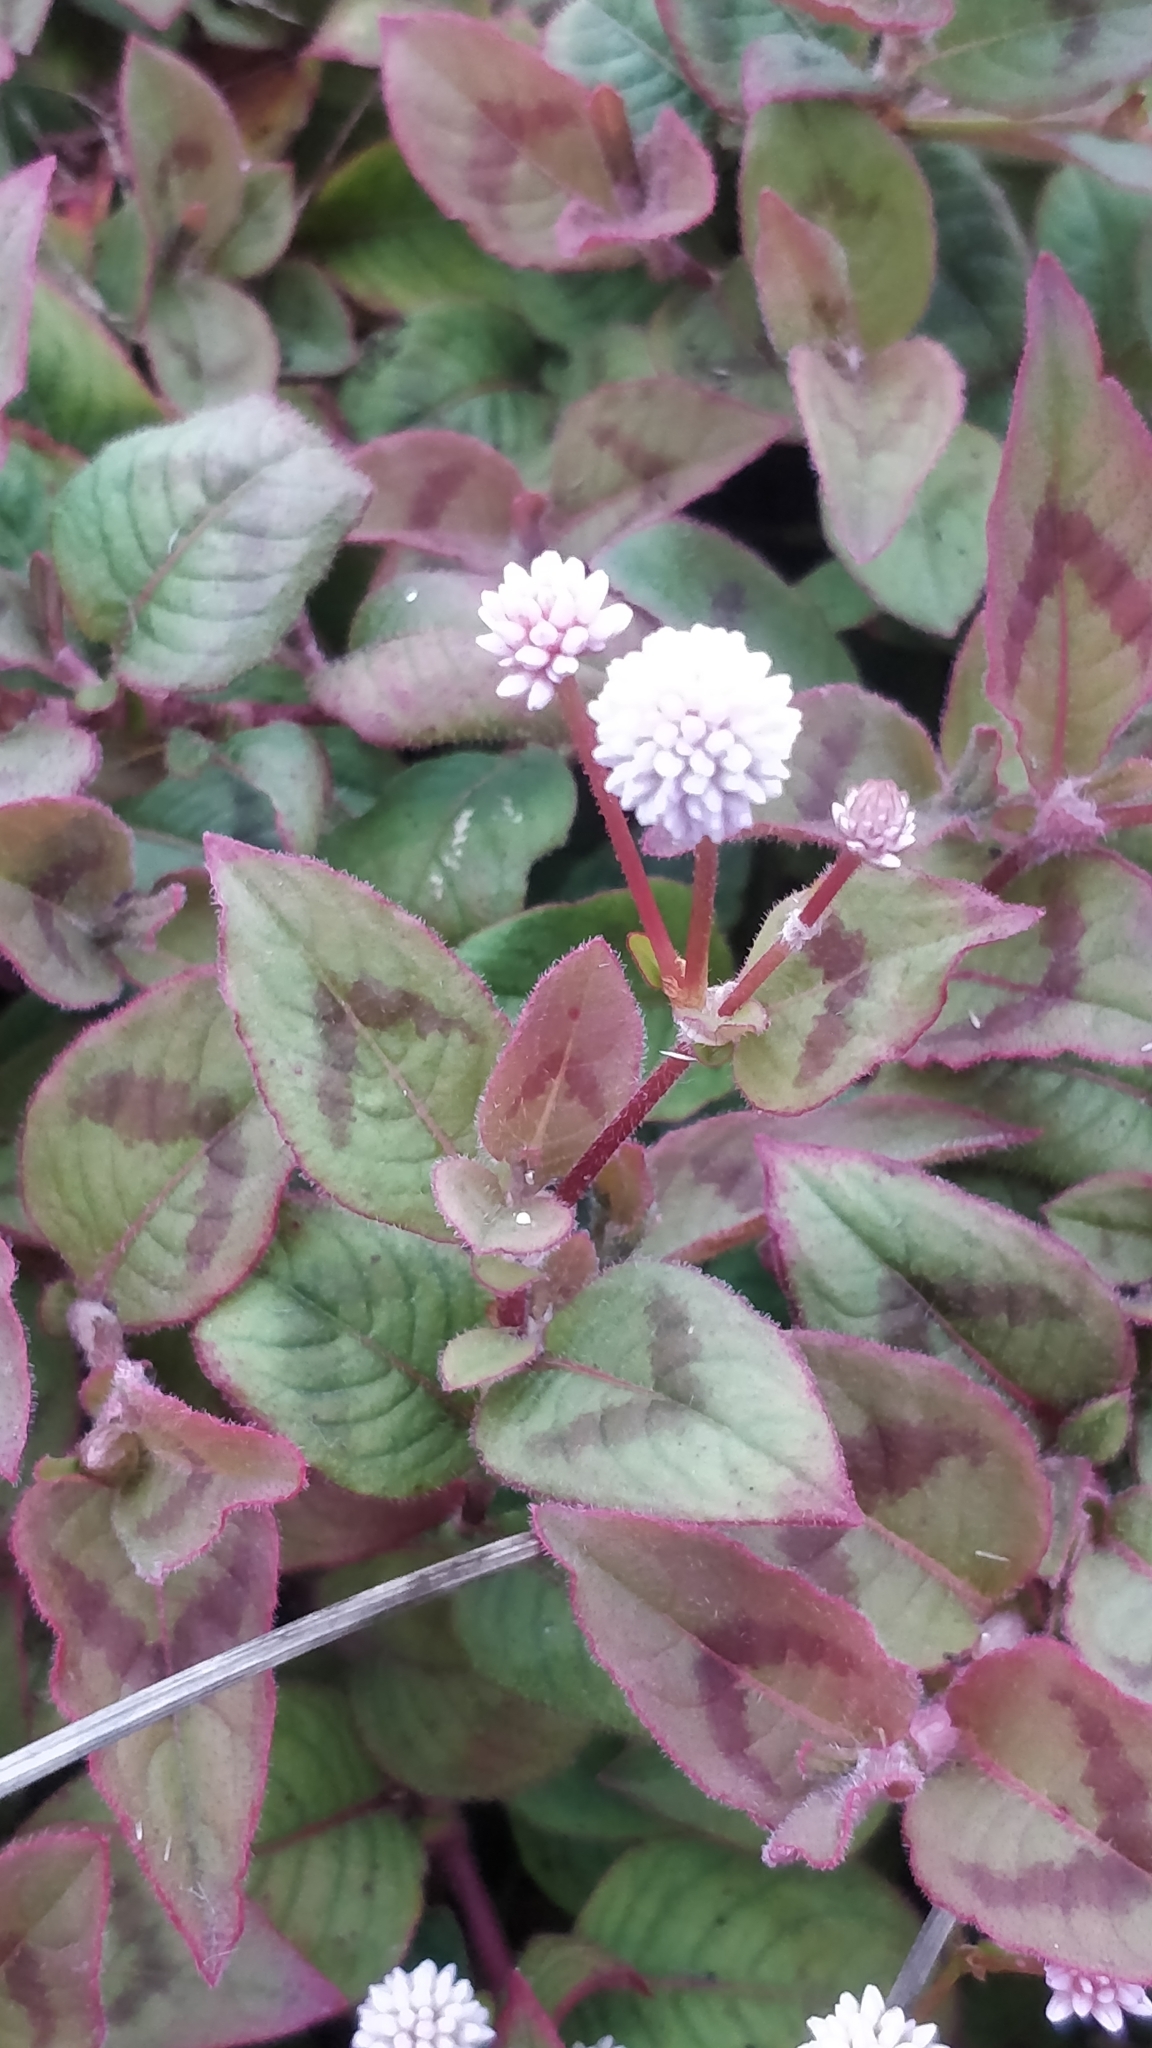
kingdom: Plantae
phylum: Tracheophyta
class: Magnoliopsida
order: Caryophyllales
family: Polygonaceae
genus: Persicaria
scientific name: Persicaria capitata
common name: Pinkhead smartweed
